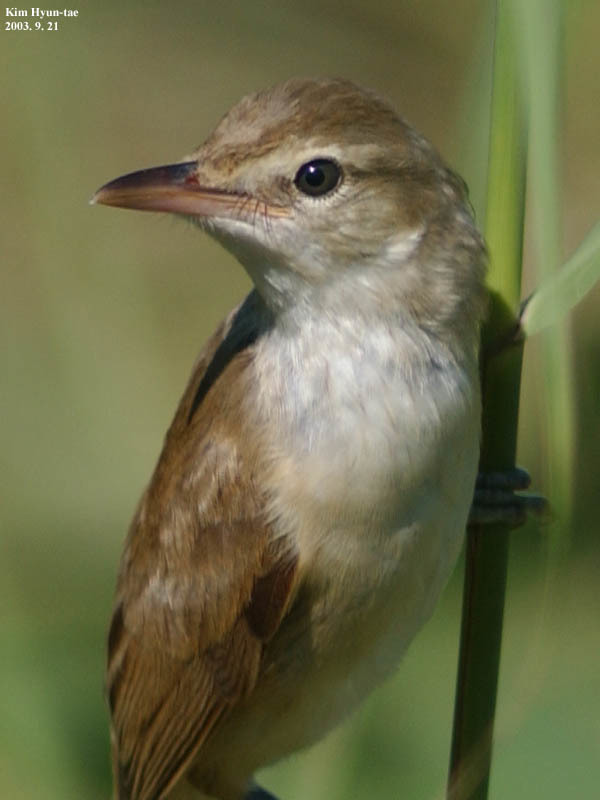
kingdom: Animalia
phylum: Chordata
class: Aves
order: Passeriformes
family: Acrocephalidae
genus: Acrocephalus
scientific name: Acrocephalus orientalis
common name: Oriental reed warbler
